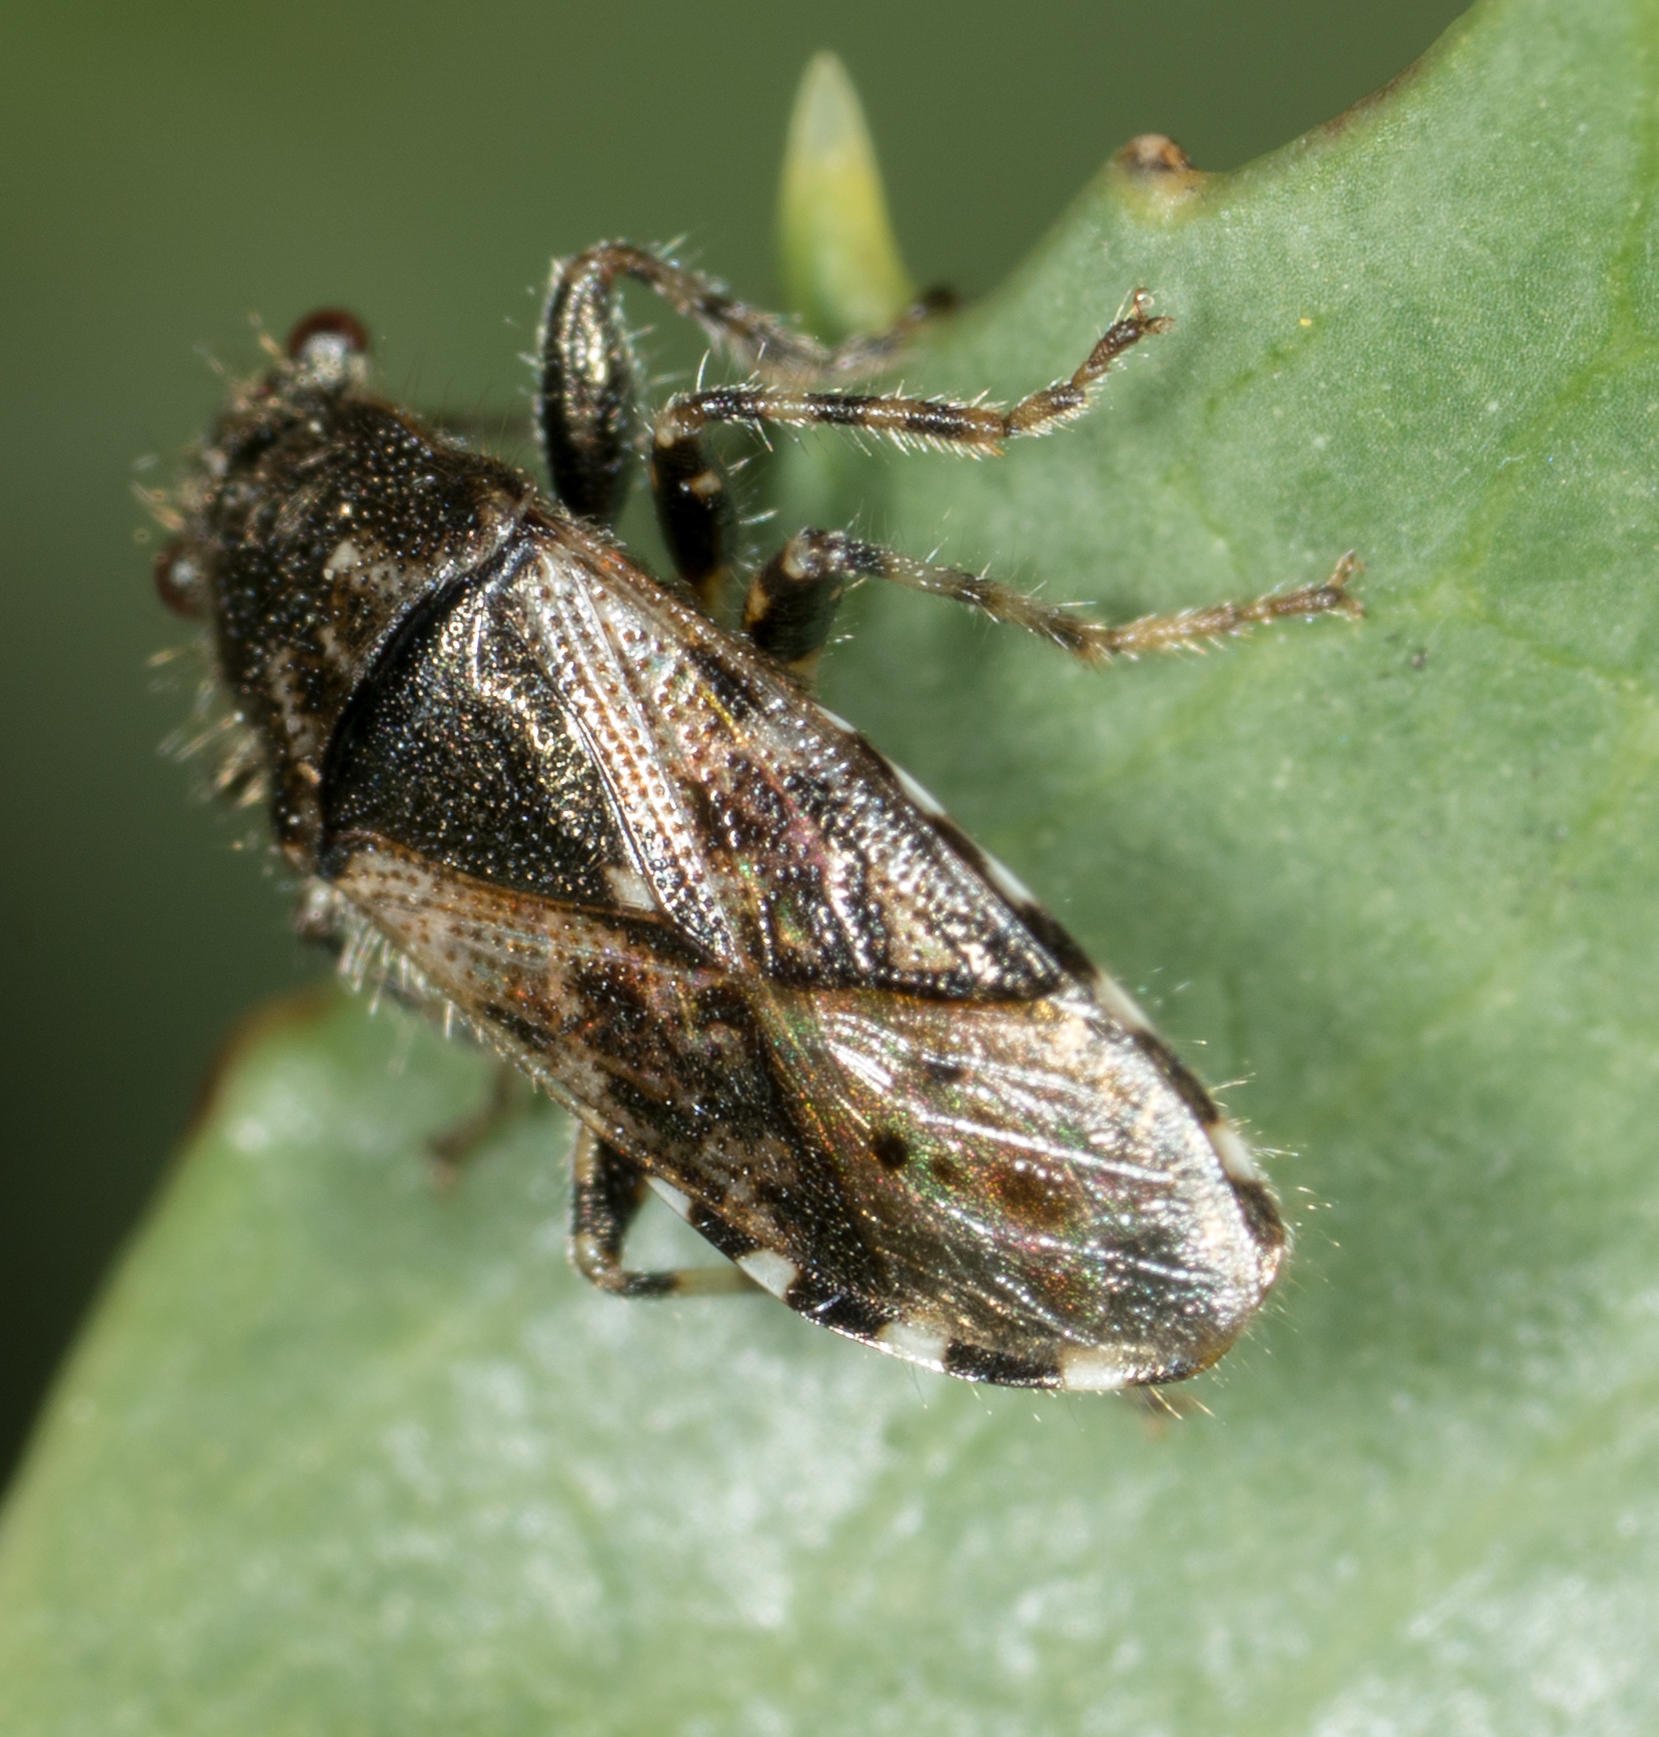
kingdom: Animalia
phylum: Arthropoda
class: Insecta
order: Hemiptera
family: Heterogastridae
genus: Heterogaster
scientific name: Heterogaster urticae
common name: Seed bug
